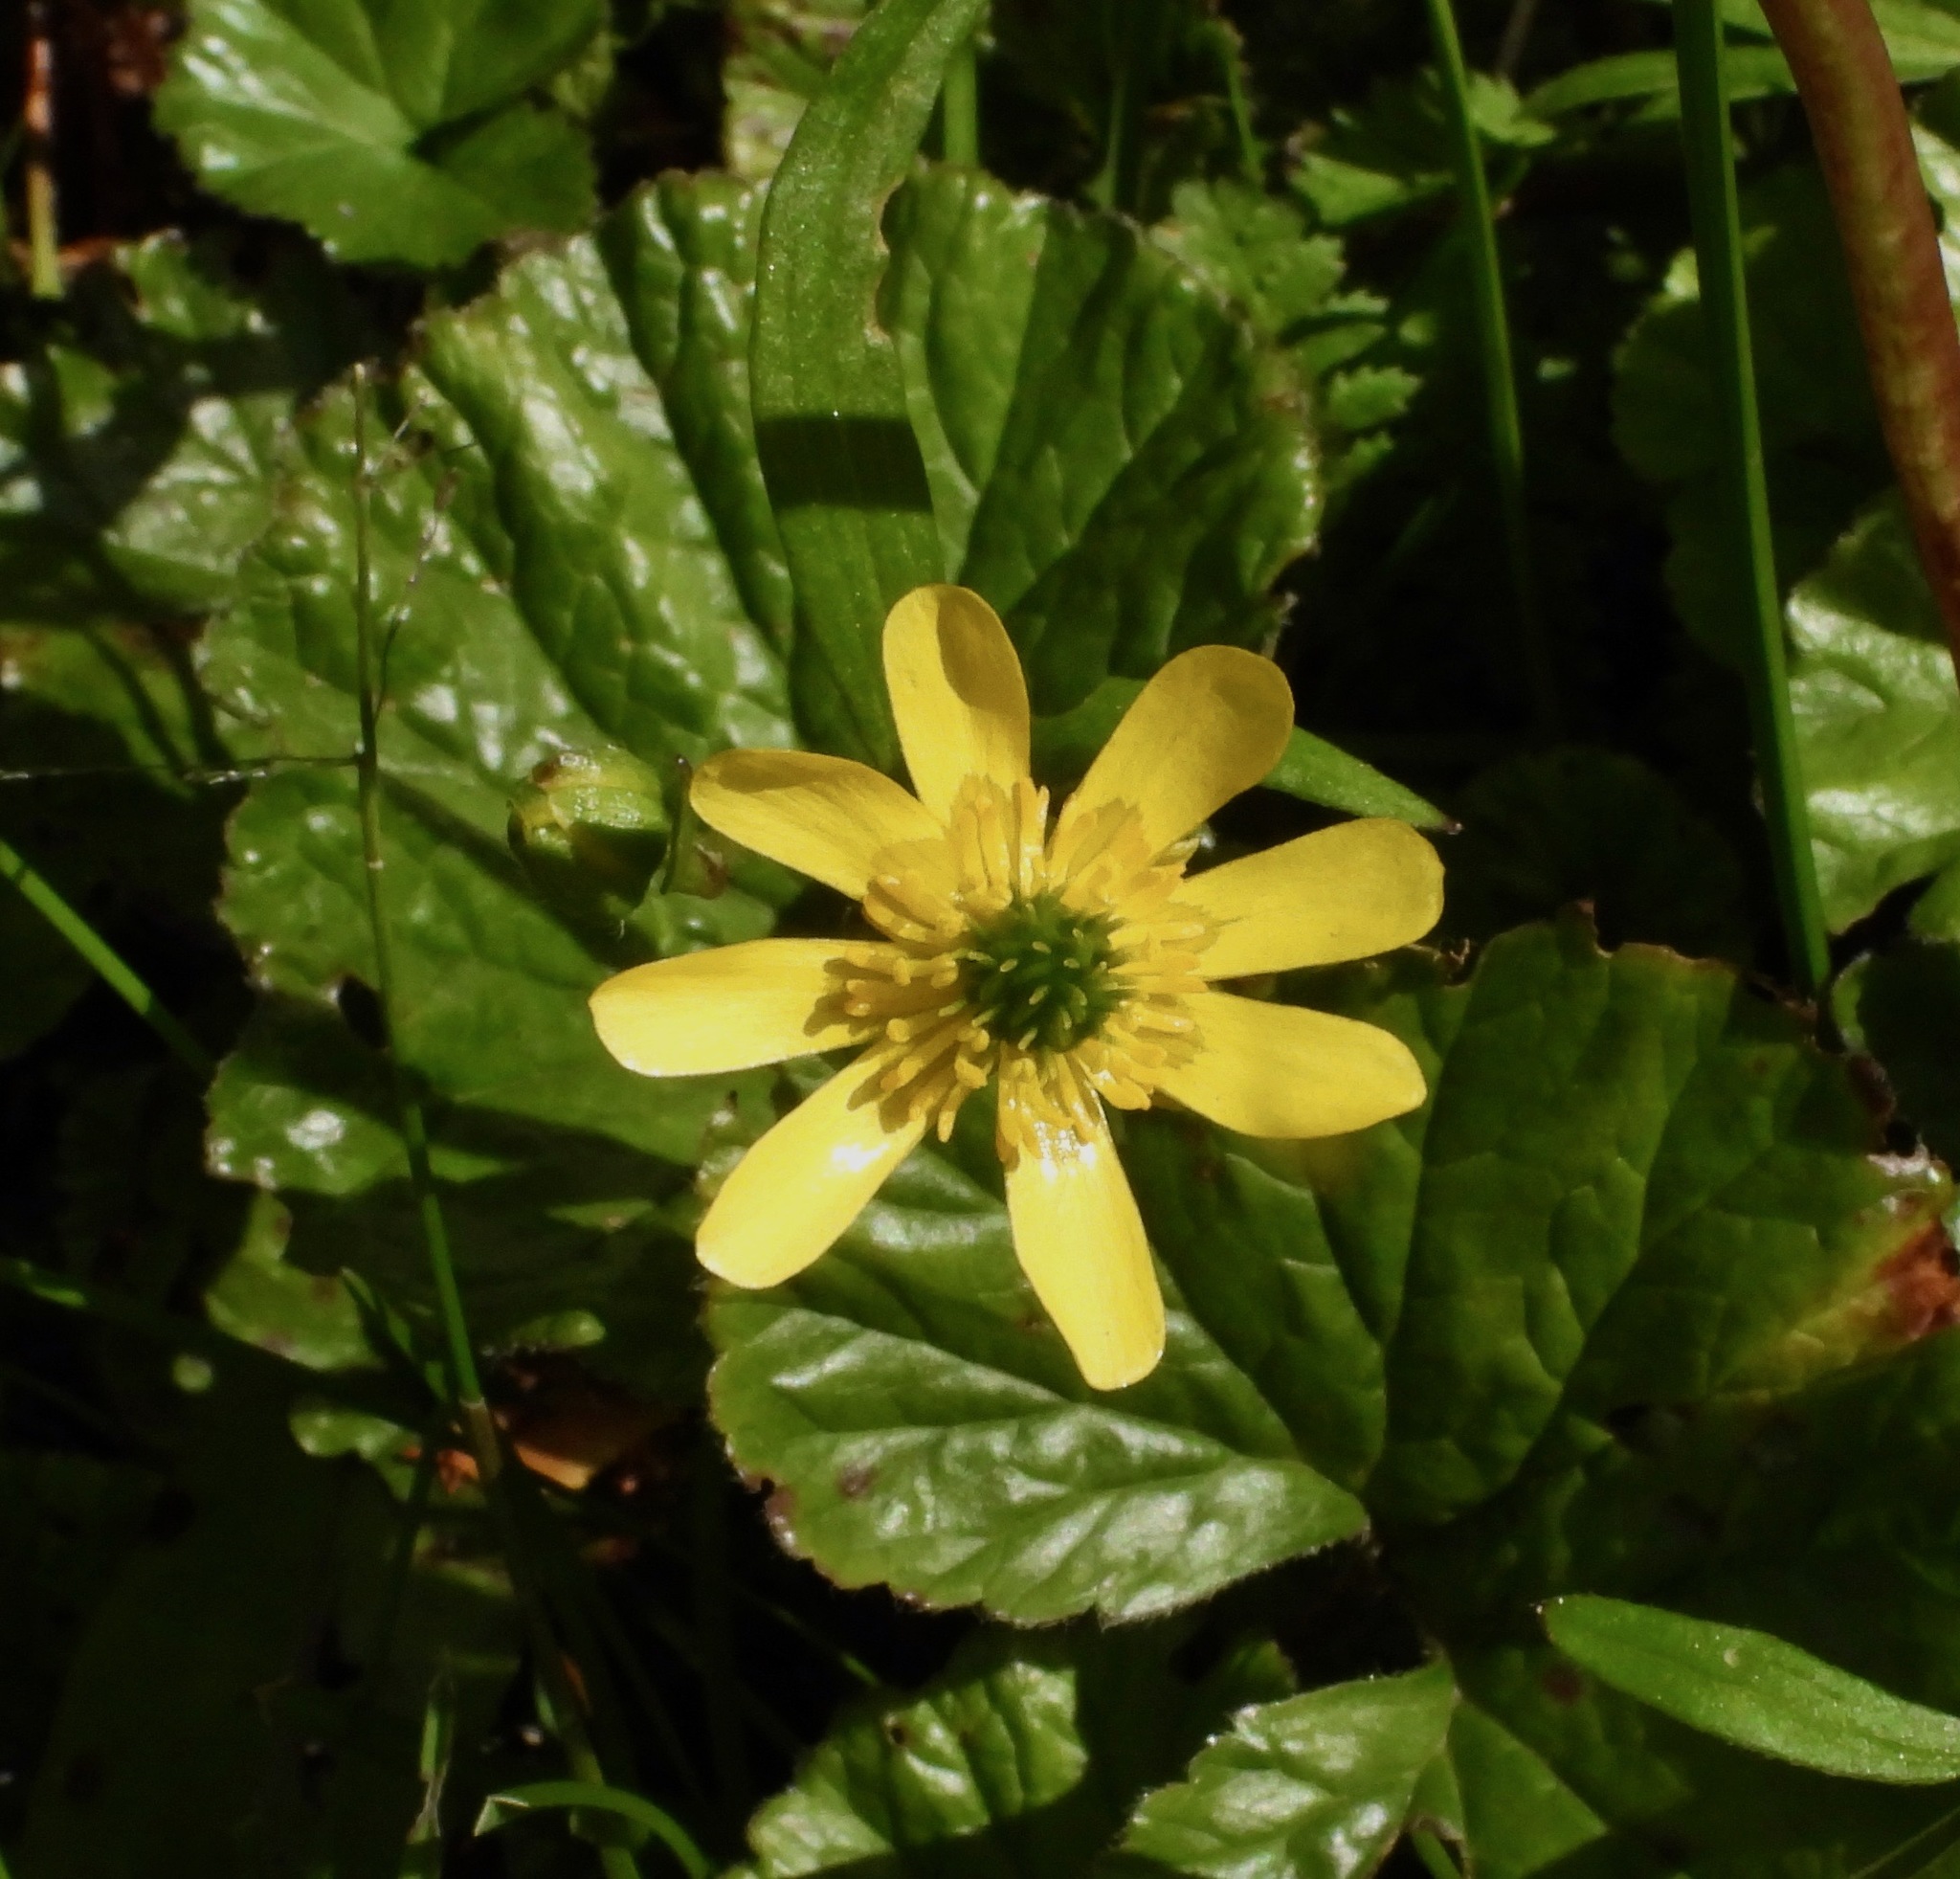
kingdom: Plantae
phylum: Tracheophyta
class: Magnoliopsida
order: Ranunculales
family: Ranunculaceae
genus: Ranunculus
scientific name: Ranunculus peduncularis
